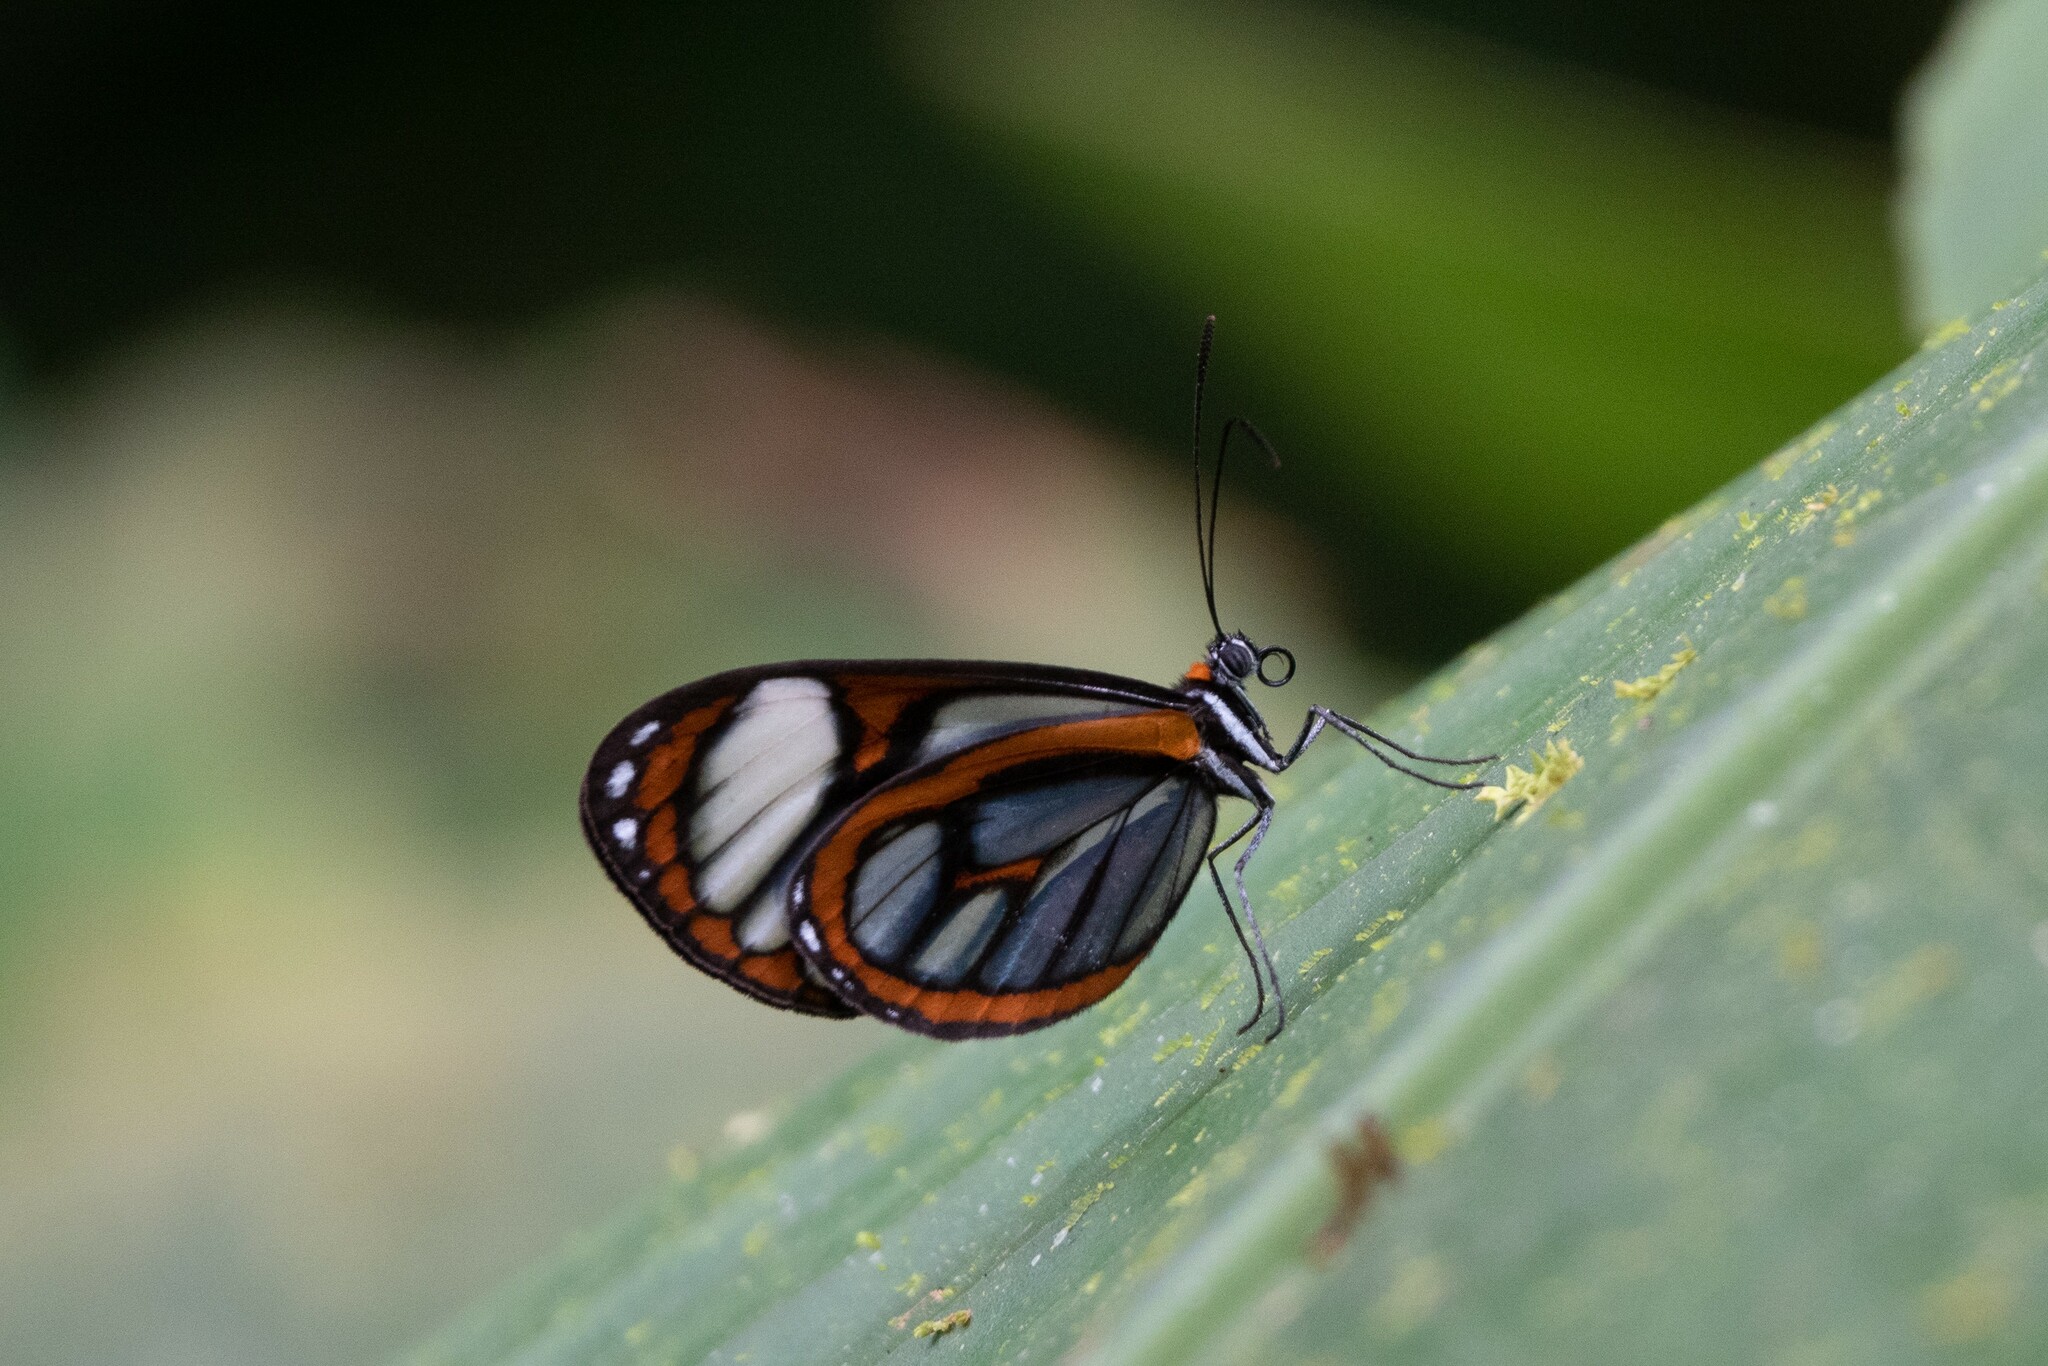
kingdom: Animalia
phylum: Arthropoda
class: Insecta
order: Lepidoptera
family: Nymphalidae
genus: Ithomia
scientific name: Ithomia terra
